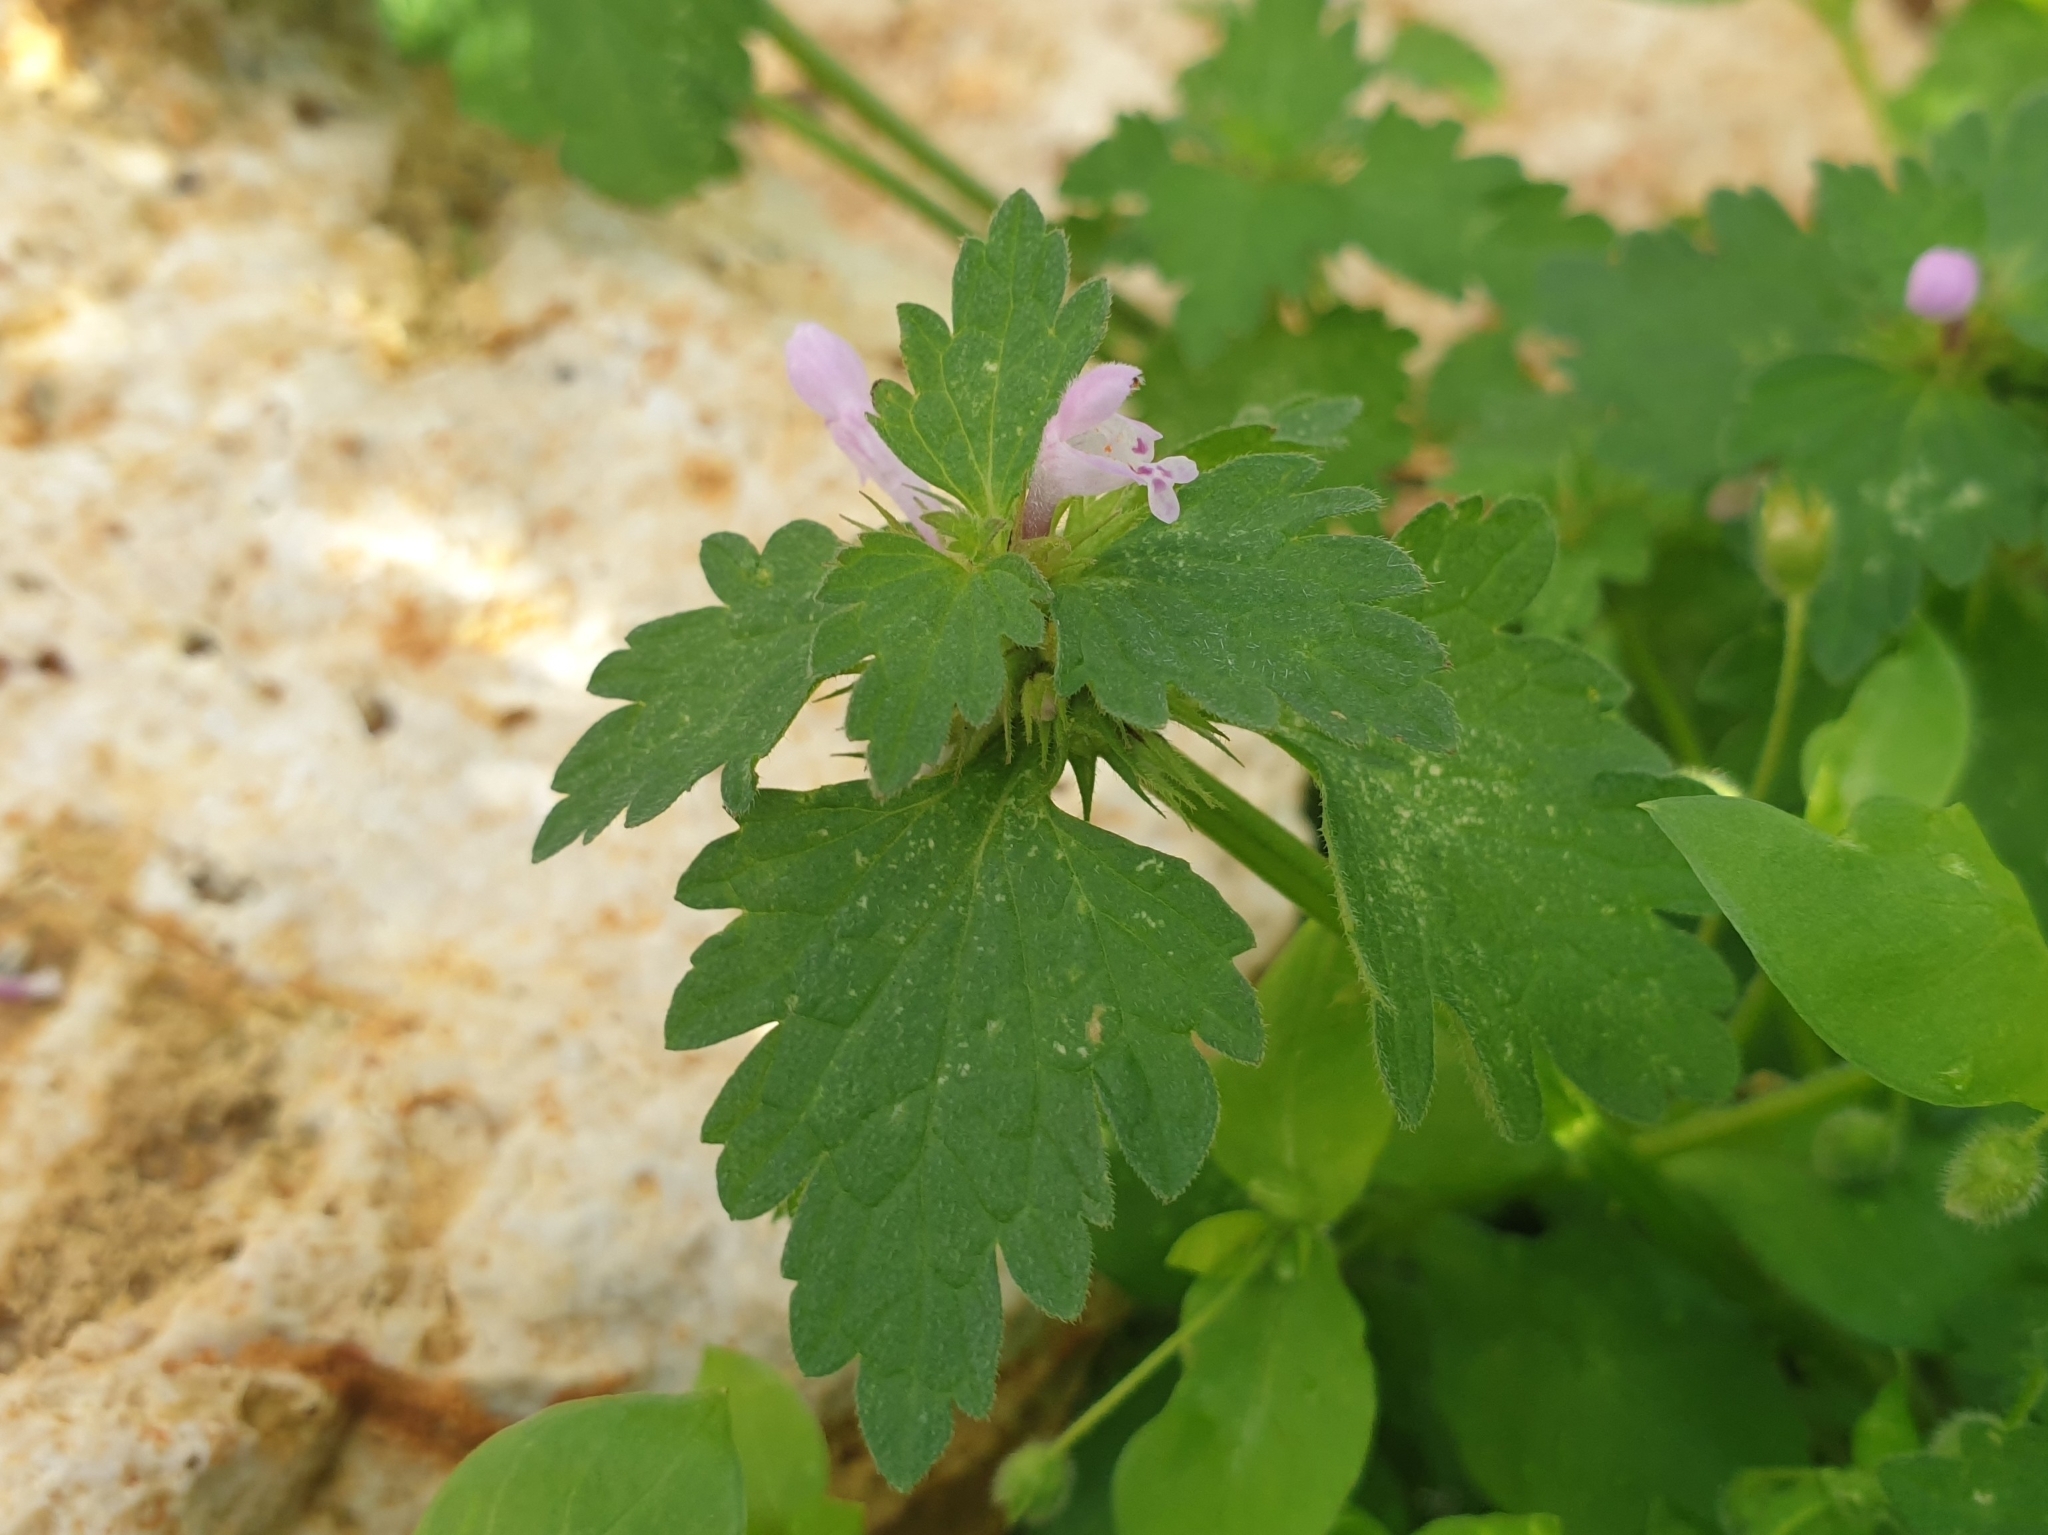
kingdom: Plantae
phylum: Tracheophyta
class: Magnoliopsida
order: Lamiales
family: Lamiaceae
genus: Lamium
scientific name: Lamium hybridum
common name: Cut-leaved dead-nettle
